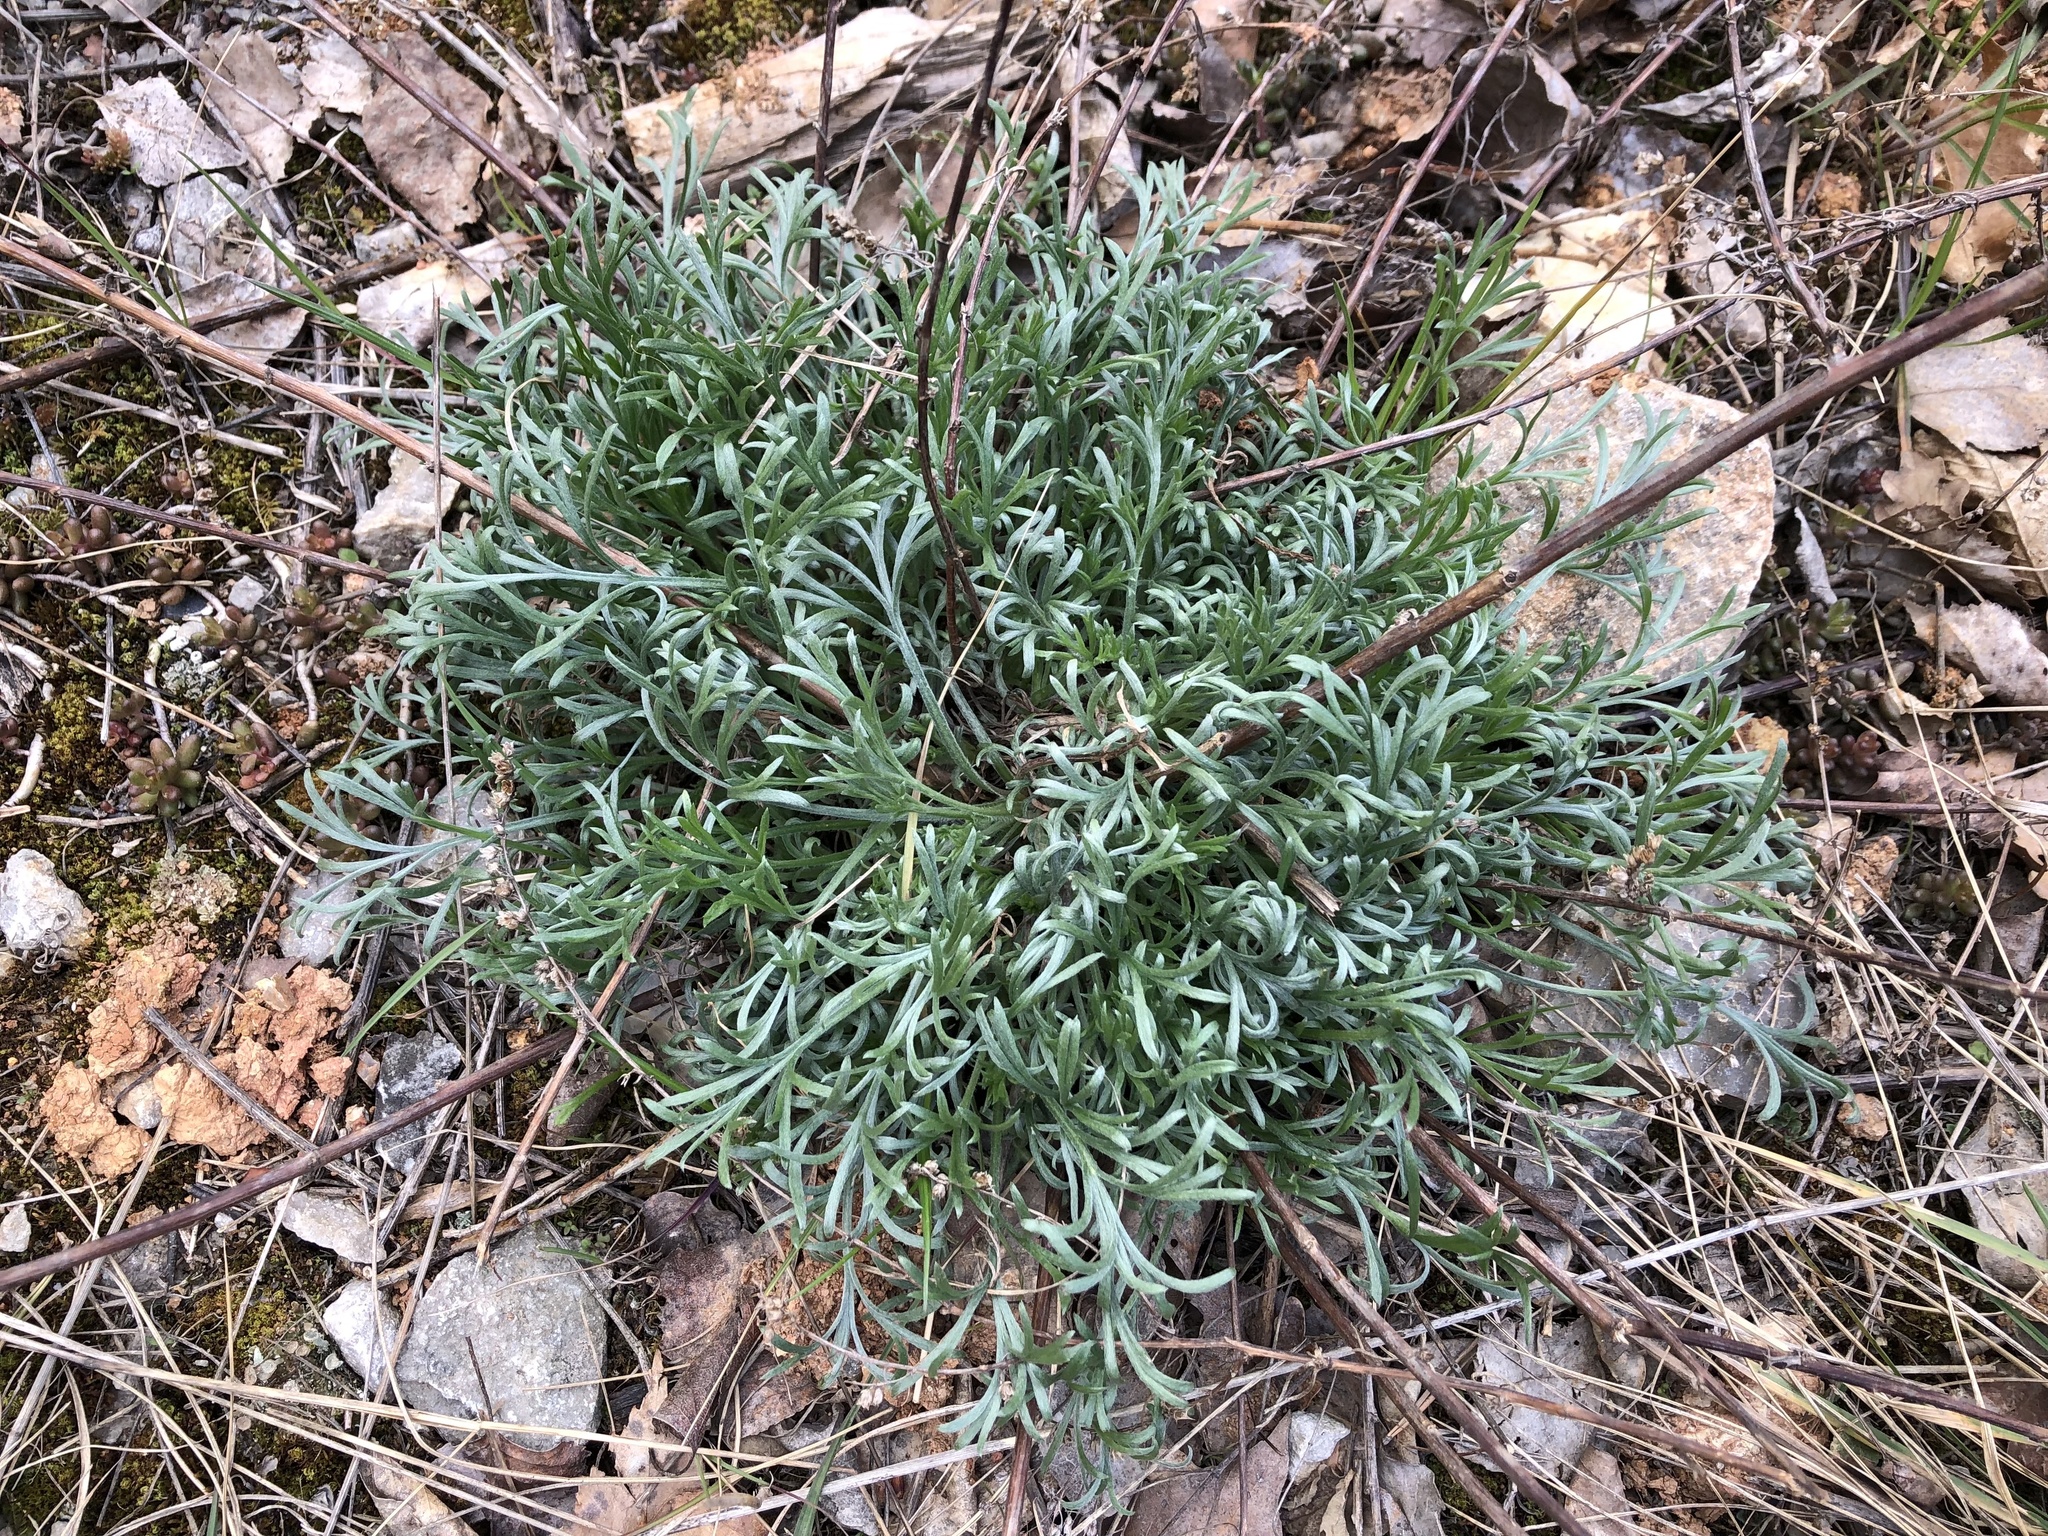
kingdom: Plantae
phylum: Tracheophyta
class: Magnoliopsida
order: Asterales
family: Asteraceae
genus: Artemisia
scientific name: Artemisia campestris
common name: Field wormwood
